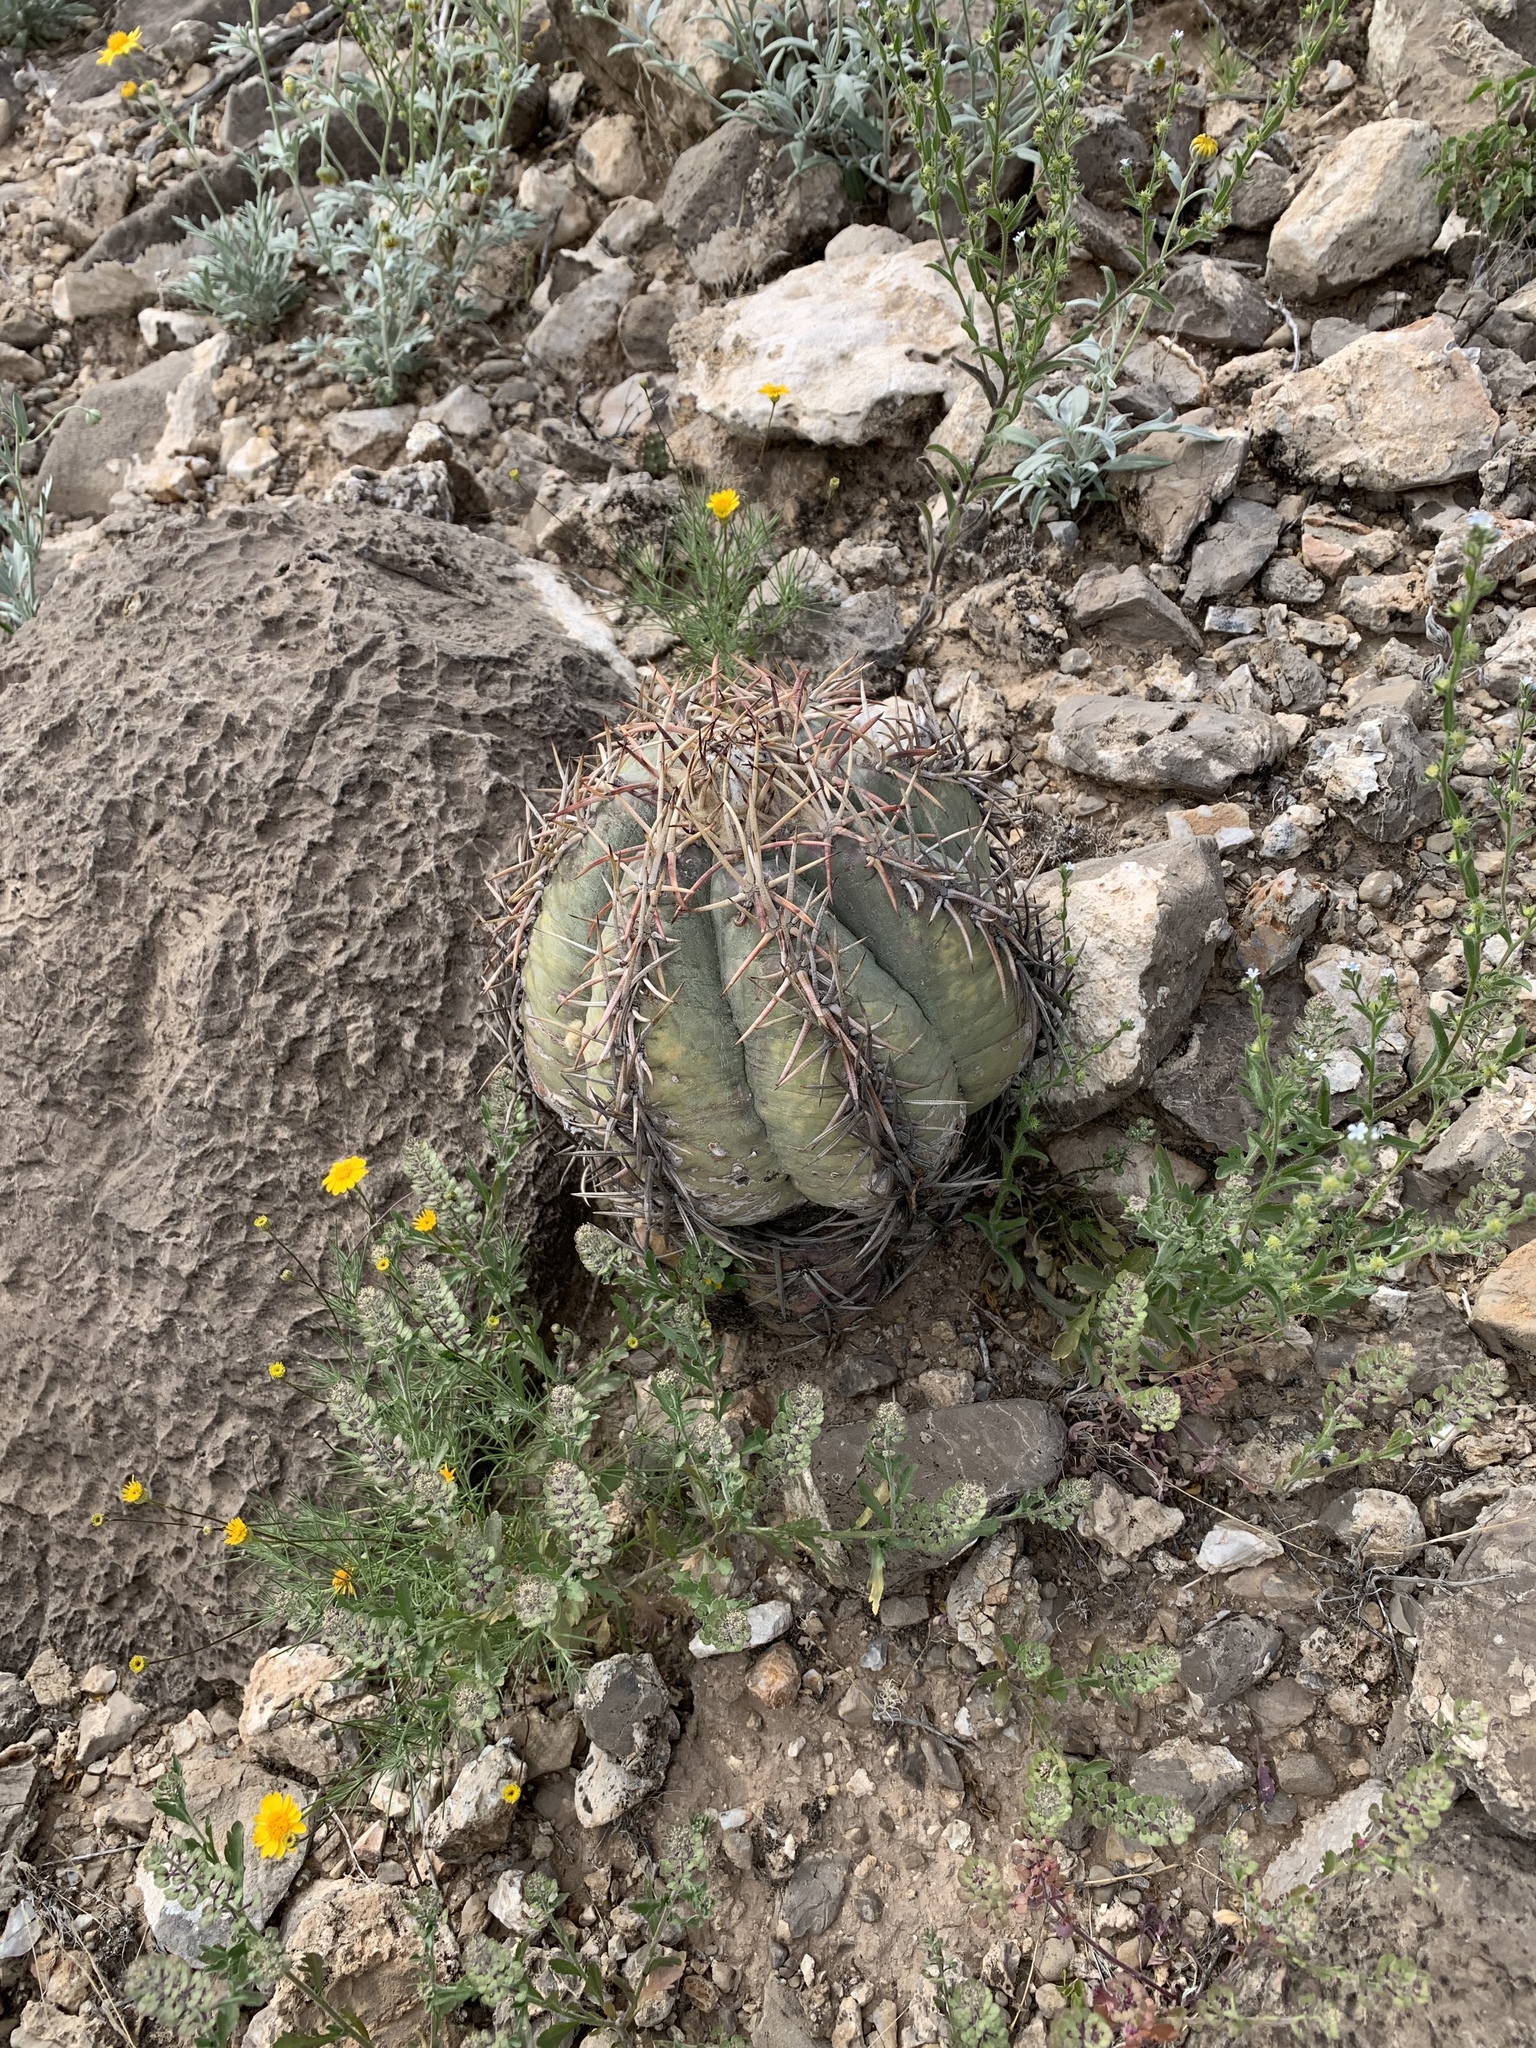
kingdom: Plantae
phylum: Tracheophyta
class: Magnoliopsida
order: Caryophyllales
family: Cactaceae
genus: Echinocactus
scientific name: Echinocactus horizonthalonius
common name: Devilshead
